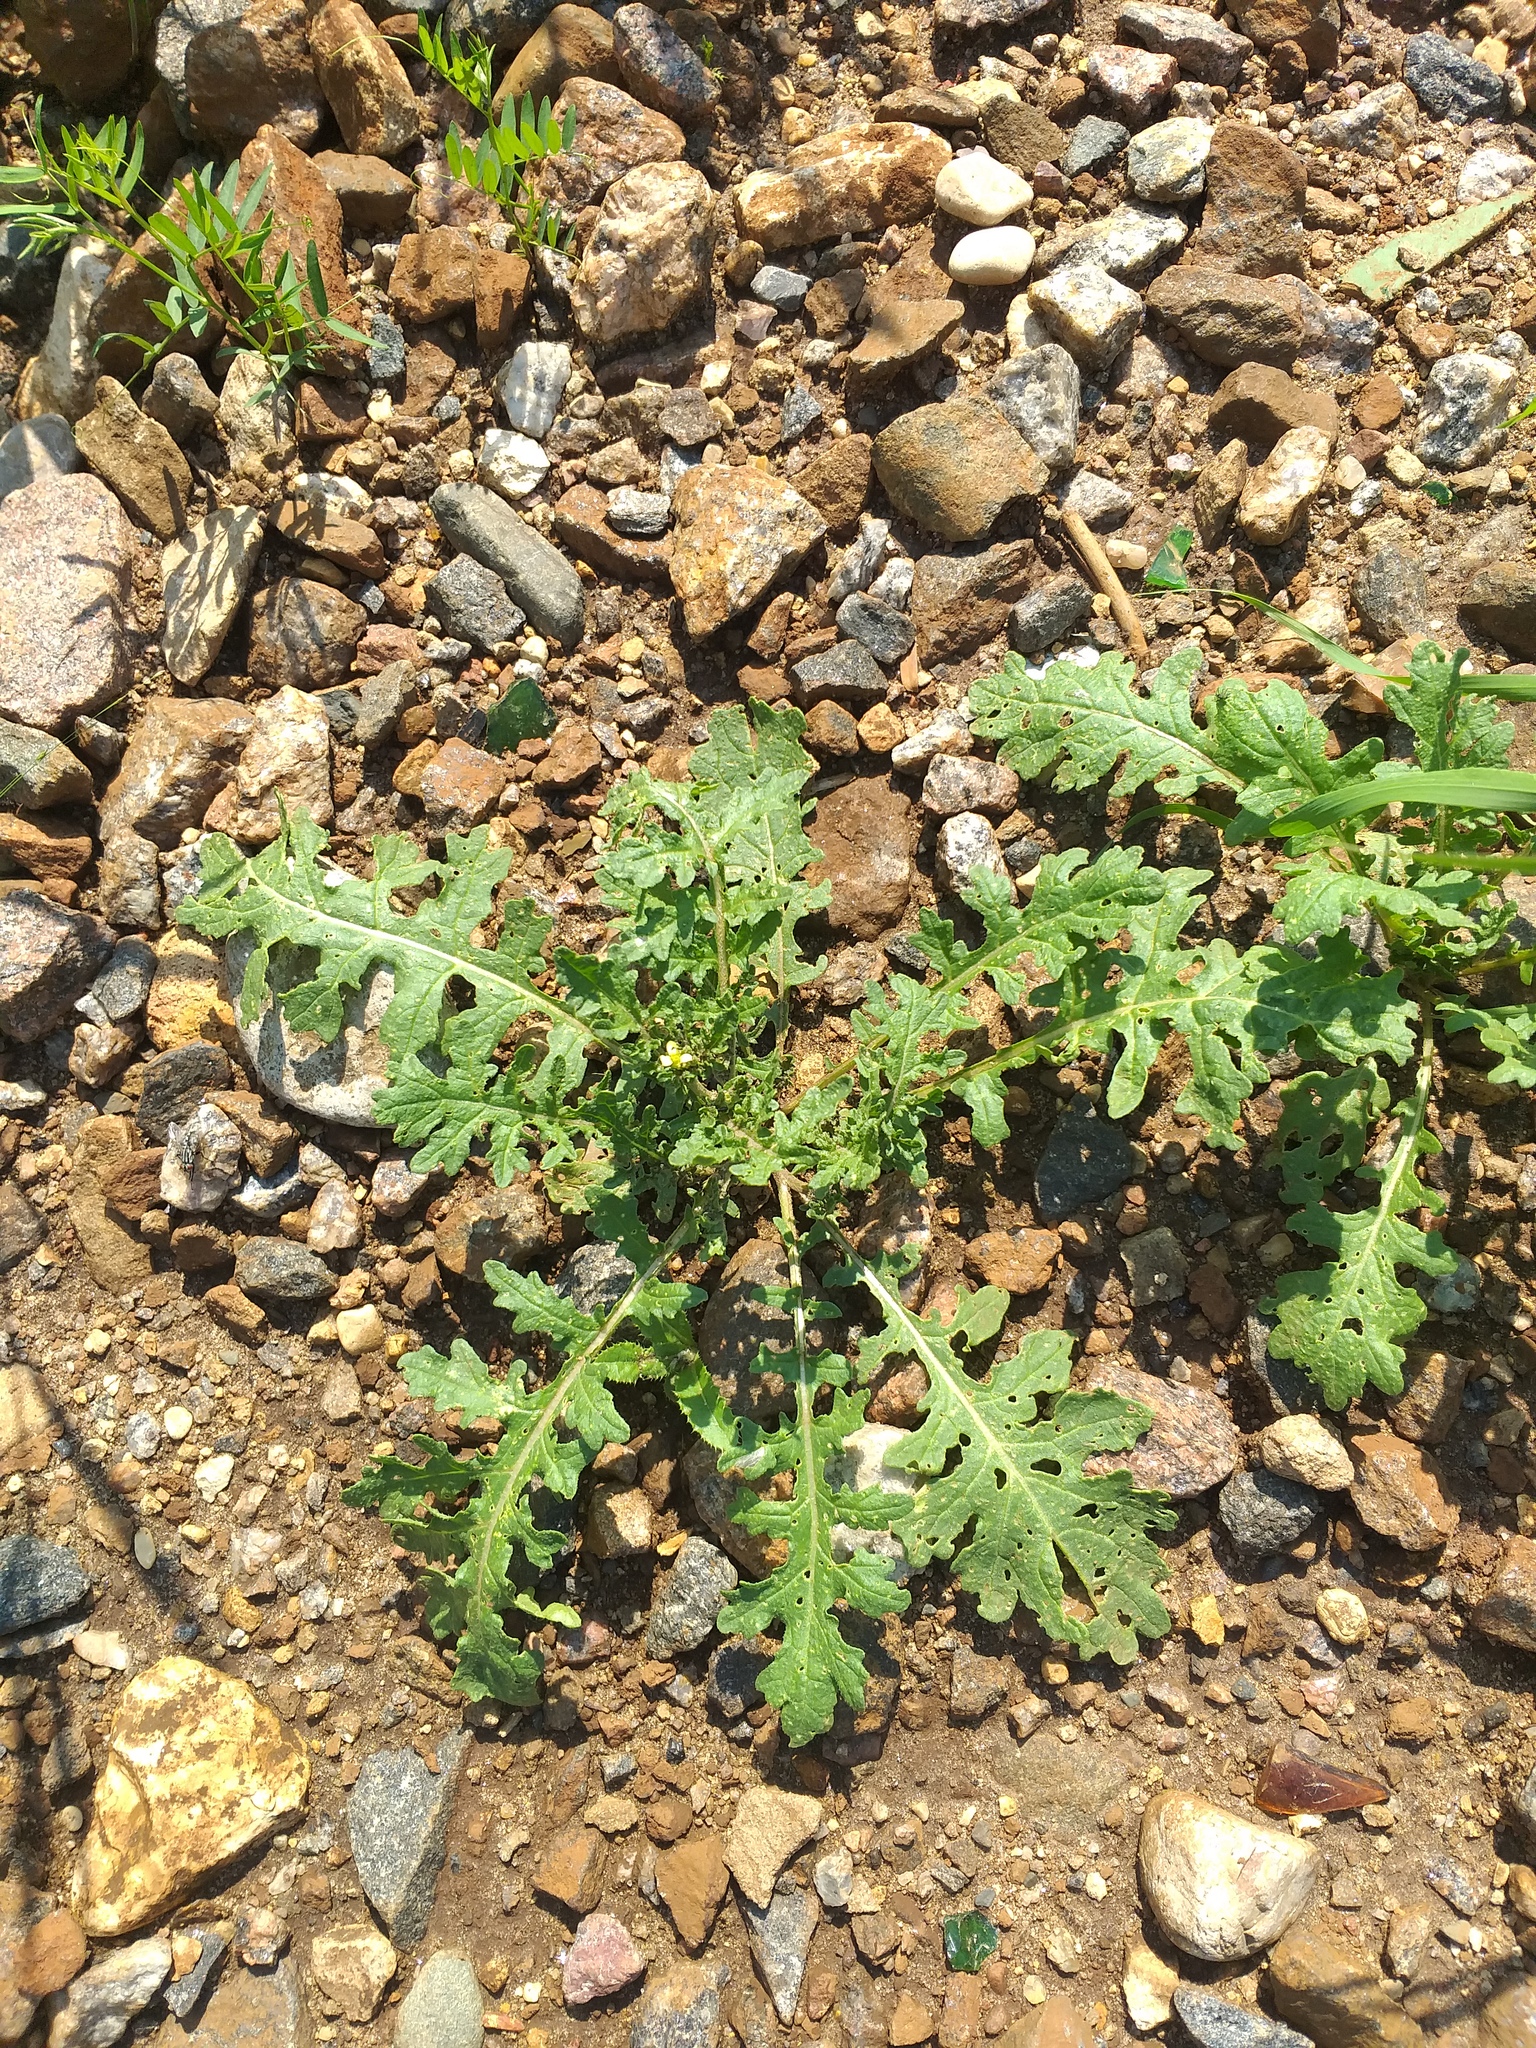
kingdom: Plantae
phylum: Tracheophyta
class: Magnoliopsida
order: Brassicales
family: Brassicaceae
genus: Erucastrum
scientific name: Erucastrum gallicum
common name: Hairy rocket
